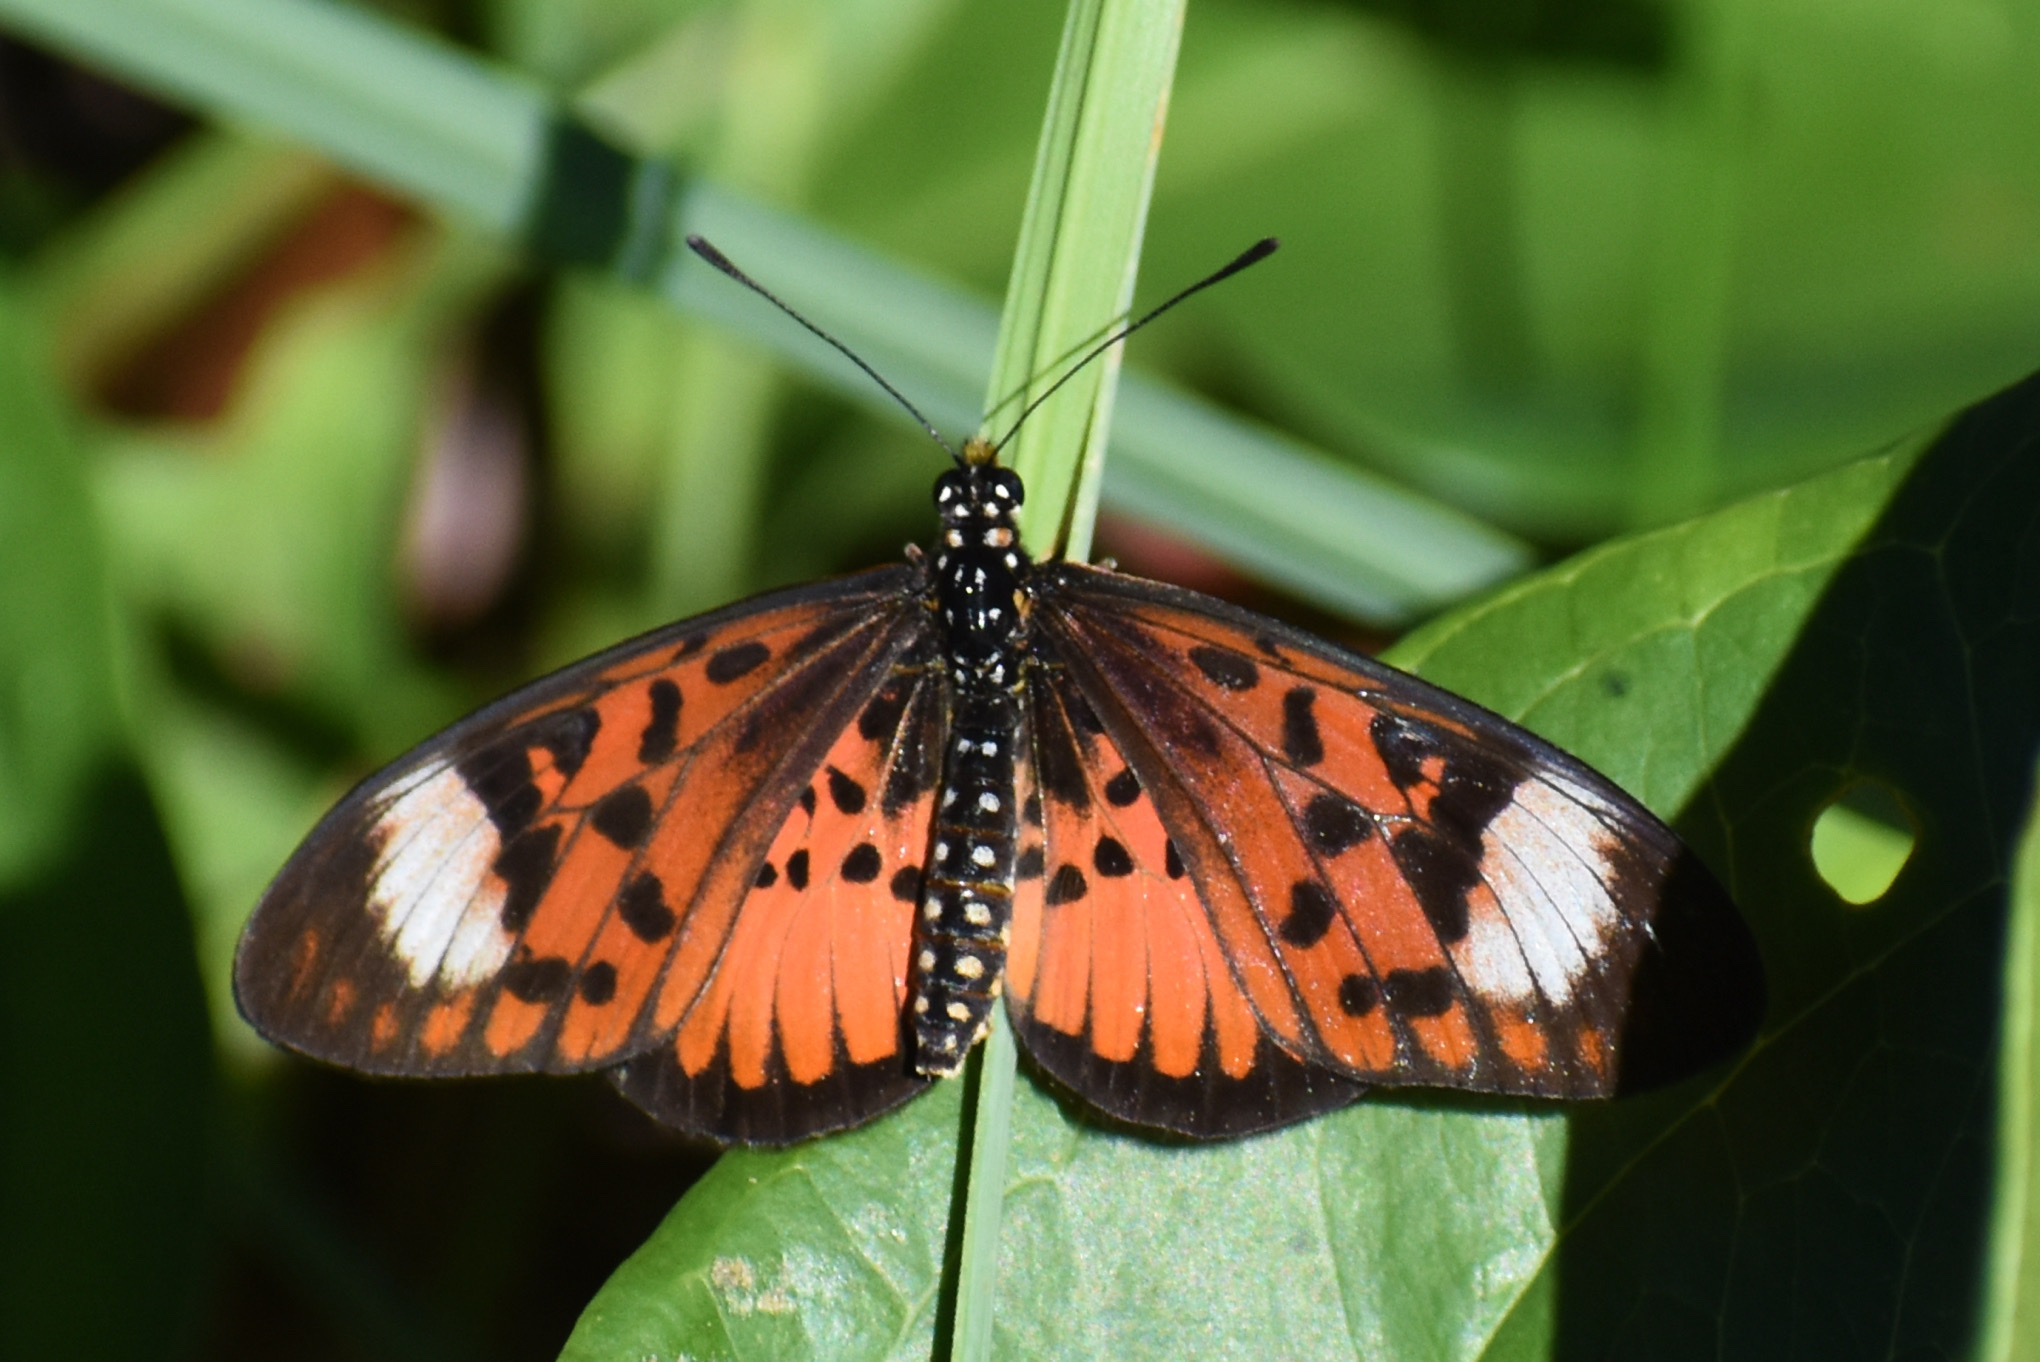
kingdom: Animalia
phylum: Arthropoda
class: Insecta
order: Lepidoptera
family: Nymphalidae
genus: Rubraea
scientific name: Rubraea
